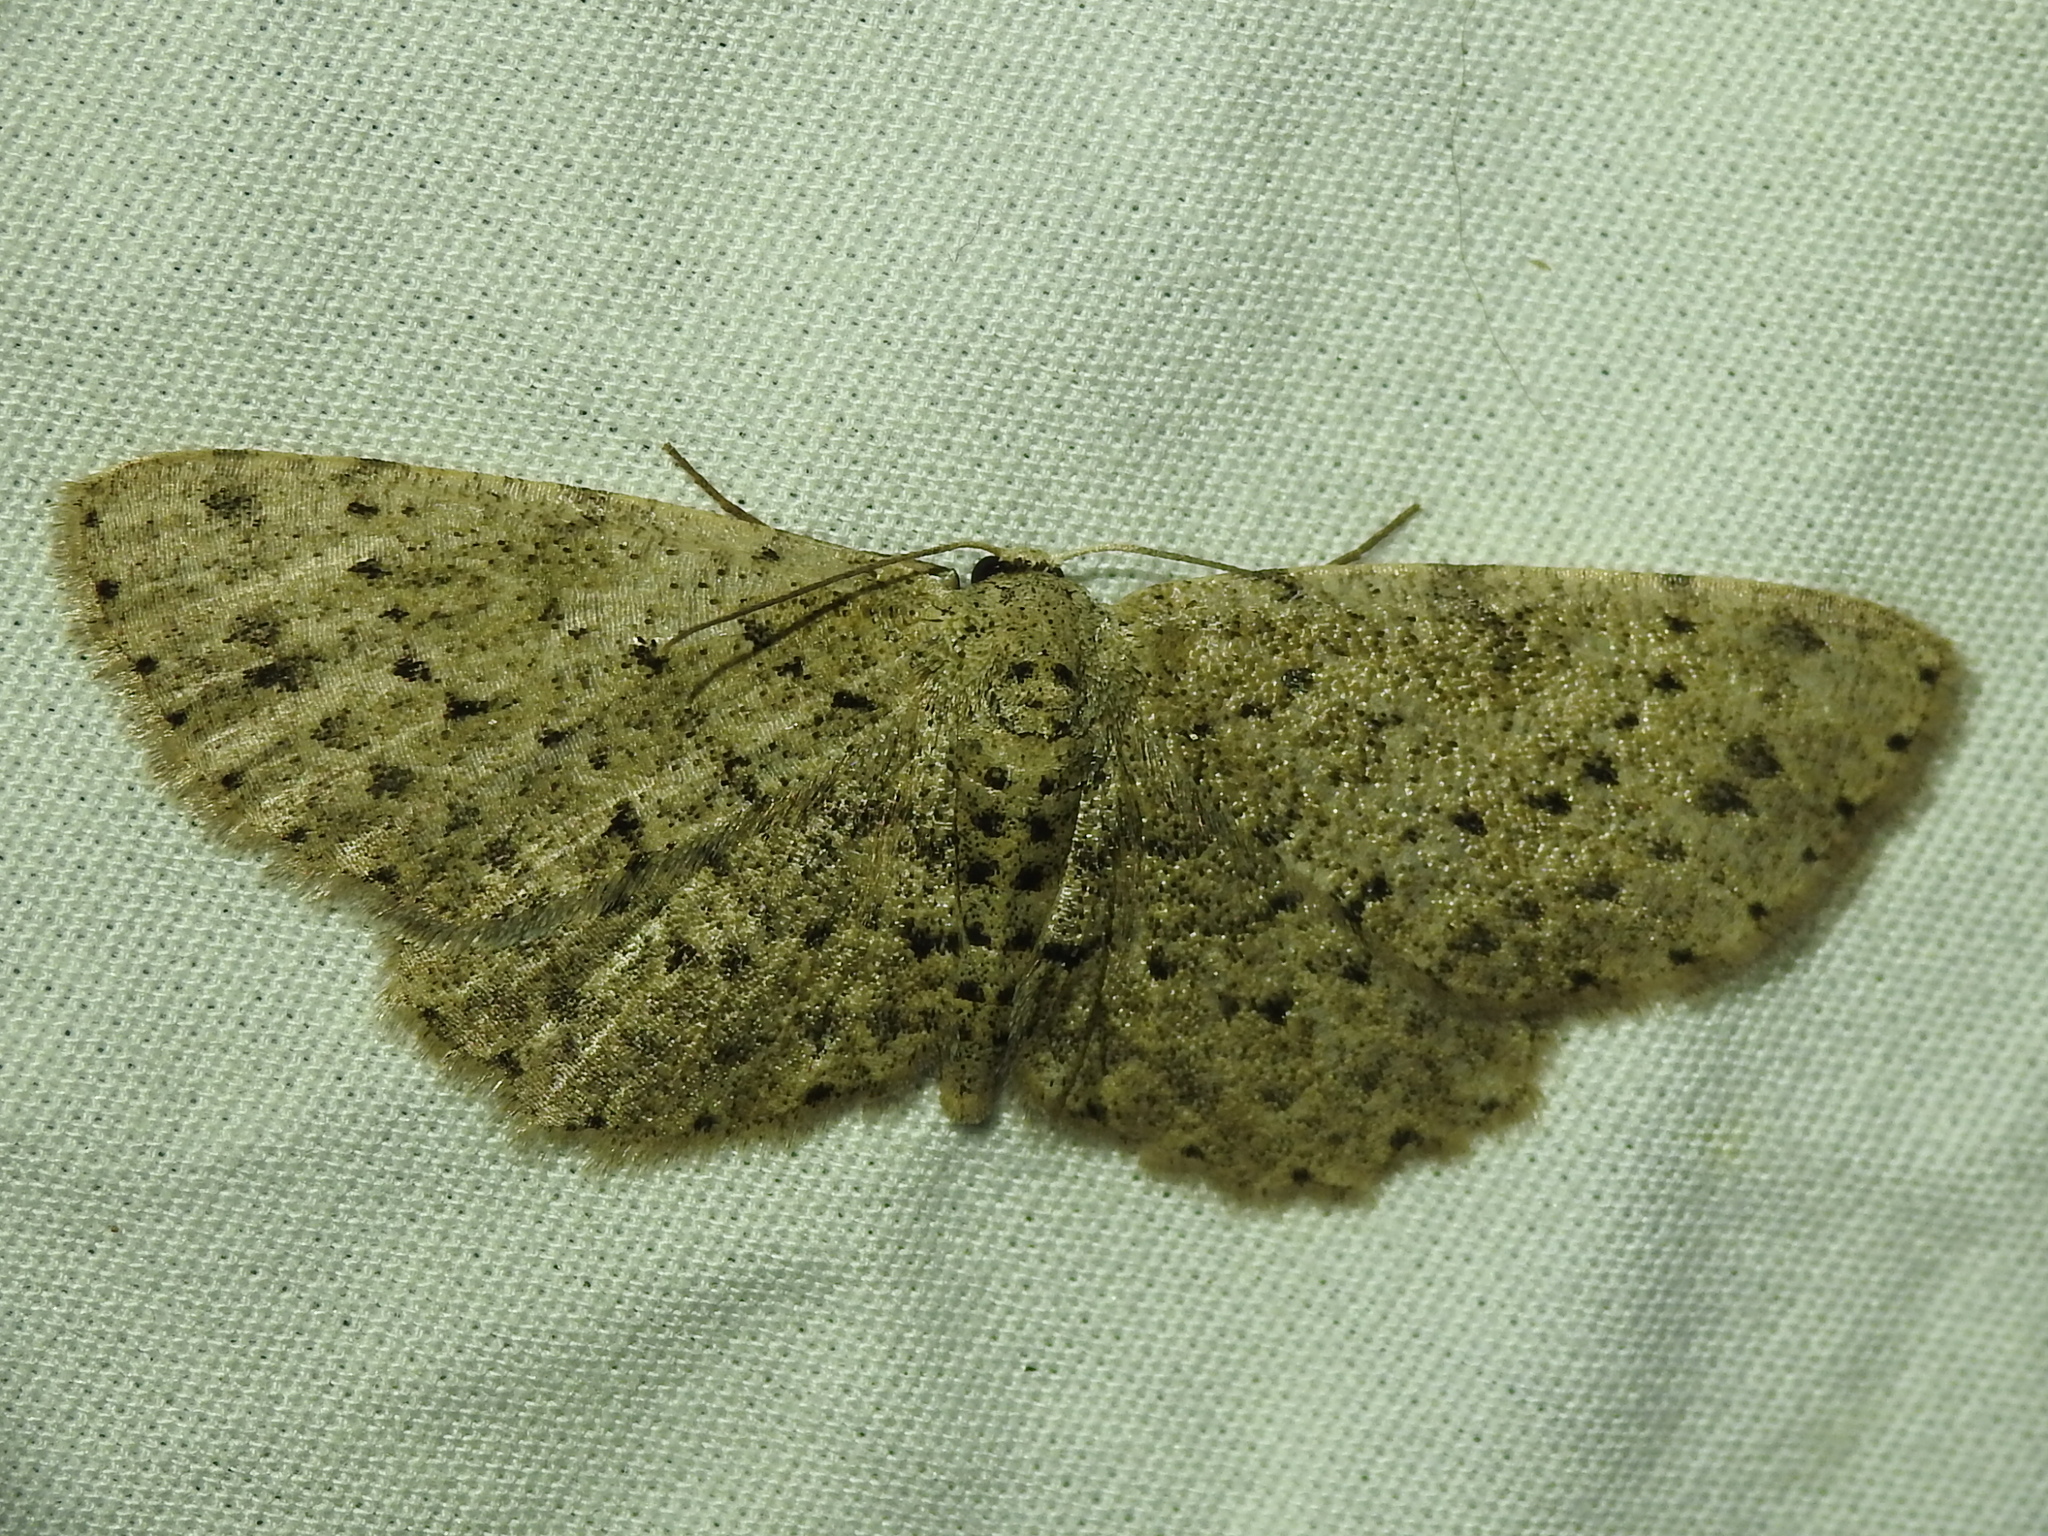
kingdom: Animalia
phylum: Arthropoda
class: Insecta
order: Lepidoptera
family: Geometridae
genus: Glena
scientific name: Glena cribrataria
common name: Dotted gray
